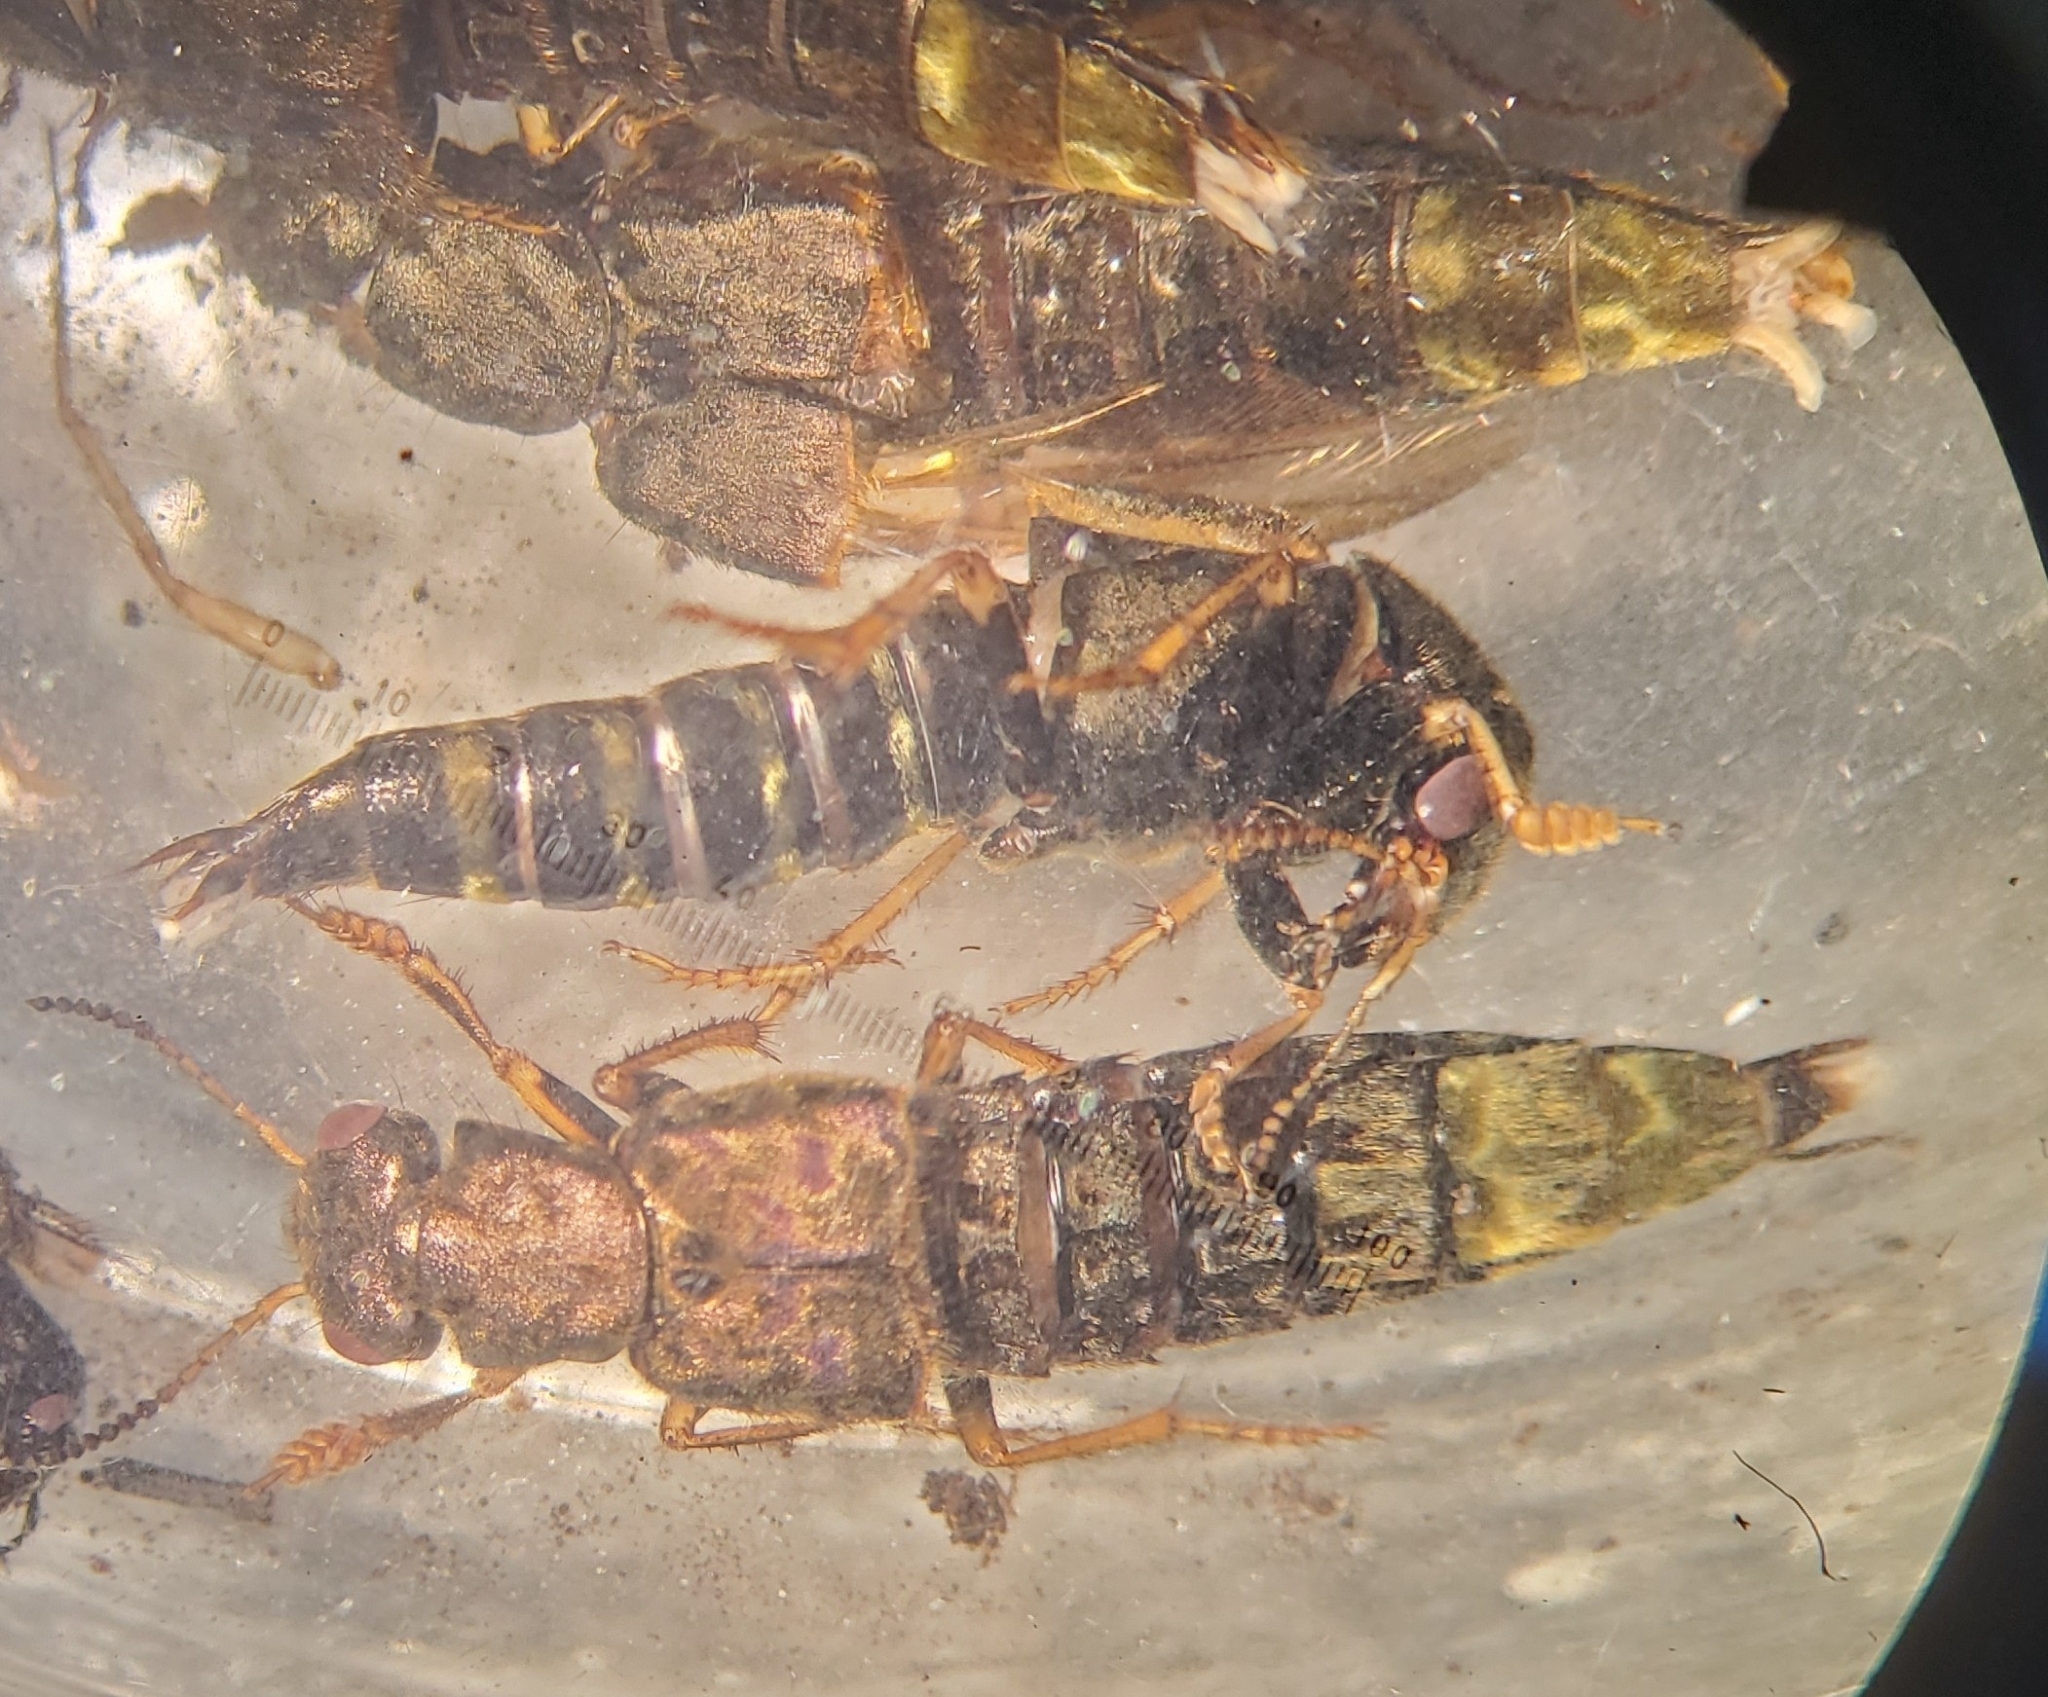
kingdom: Animalia
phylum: Arthropoda
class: Insecta
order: Coleoptera
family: Staphylinidae
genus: Ontholestes
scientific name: Ontholestes cingulatus
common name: Gold-and-brown rove beetle
